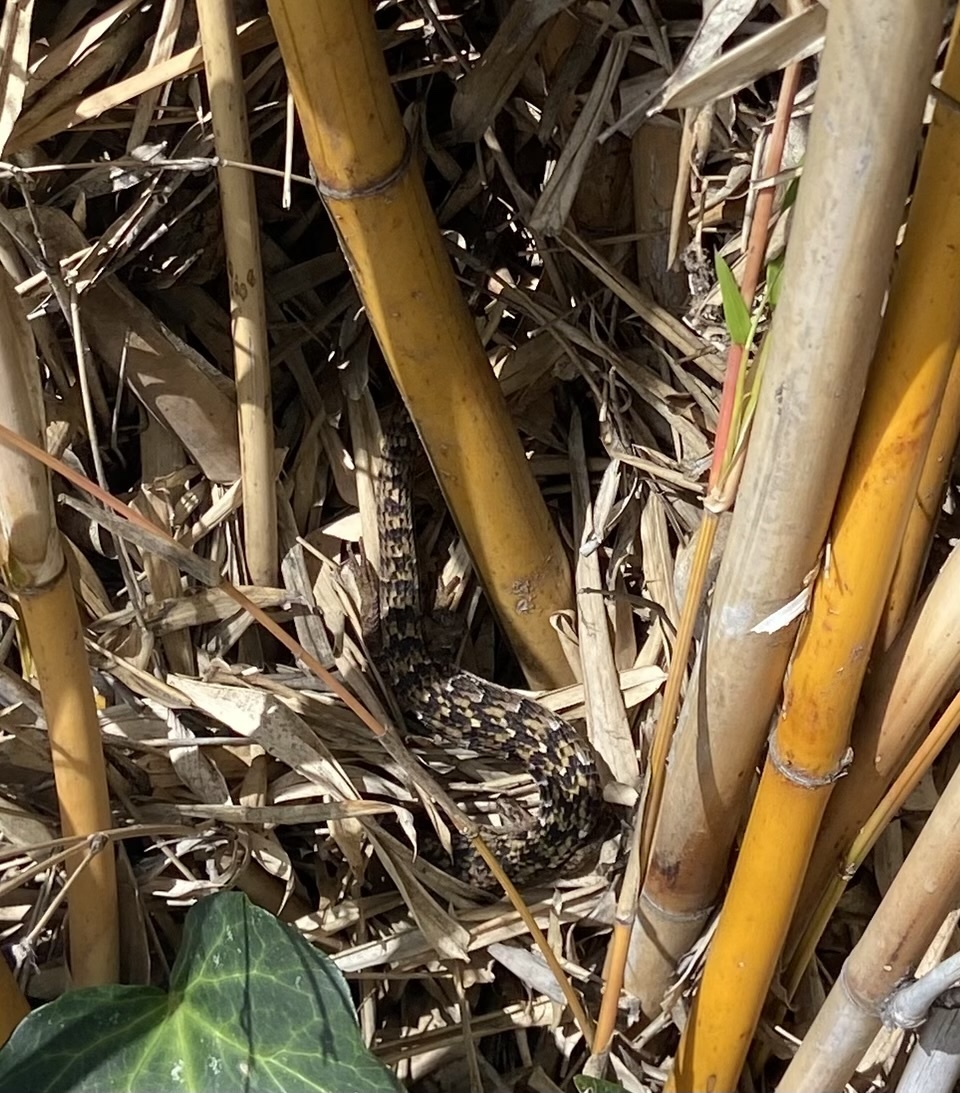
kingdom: Animalia
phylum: Chordata
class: Squamata
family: Anguidae
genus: Elgaria
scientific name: Elgaria multicarinata
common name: Southern alligator lizard
